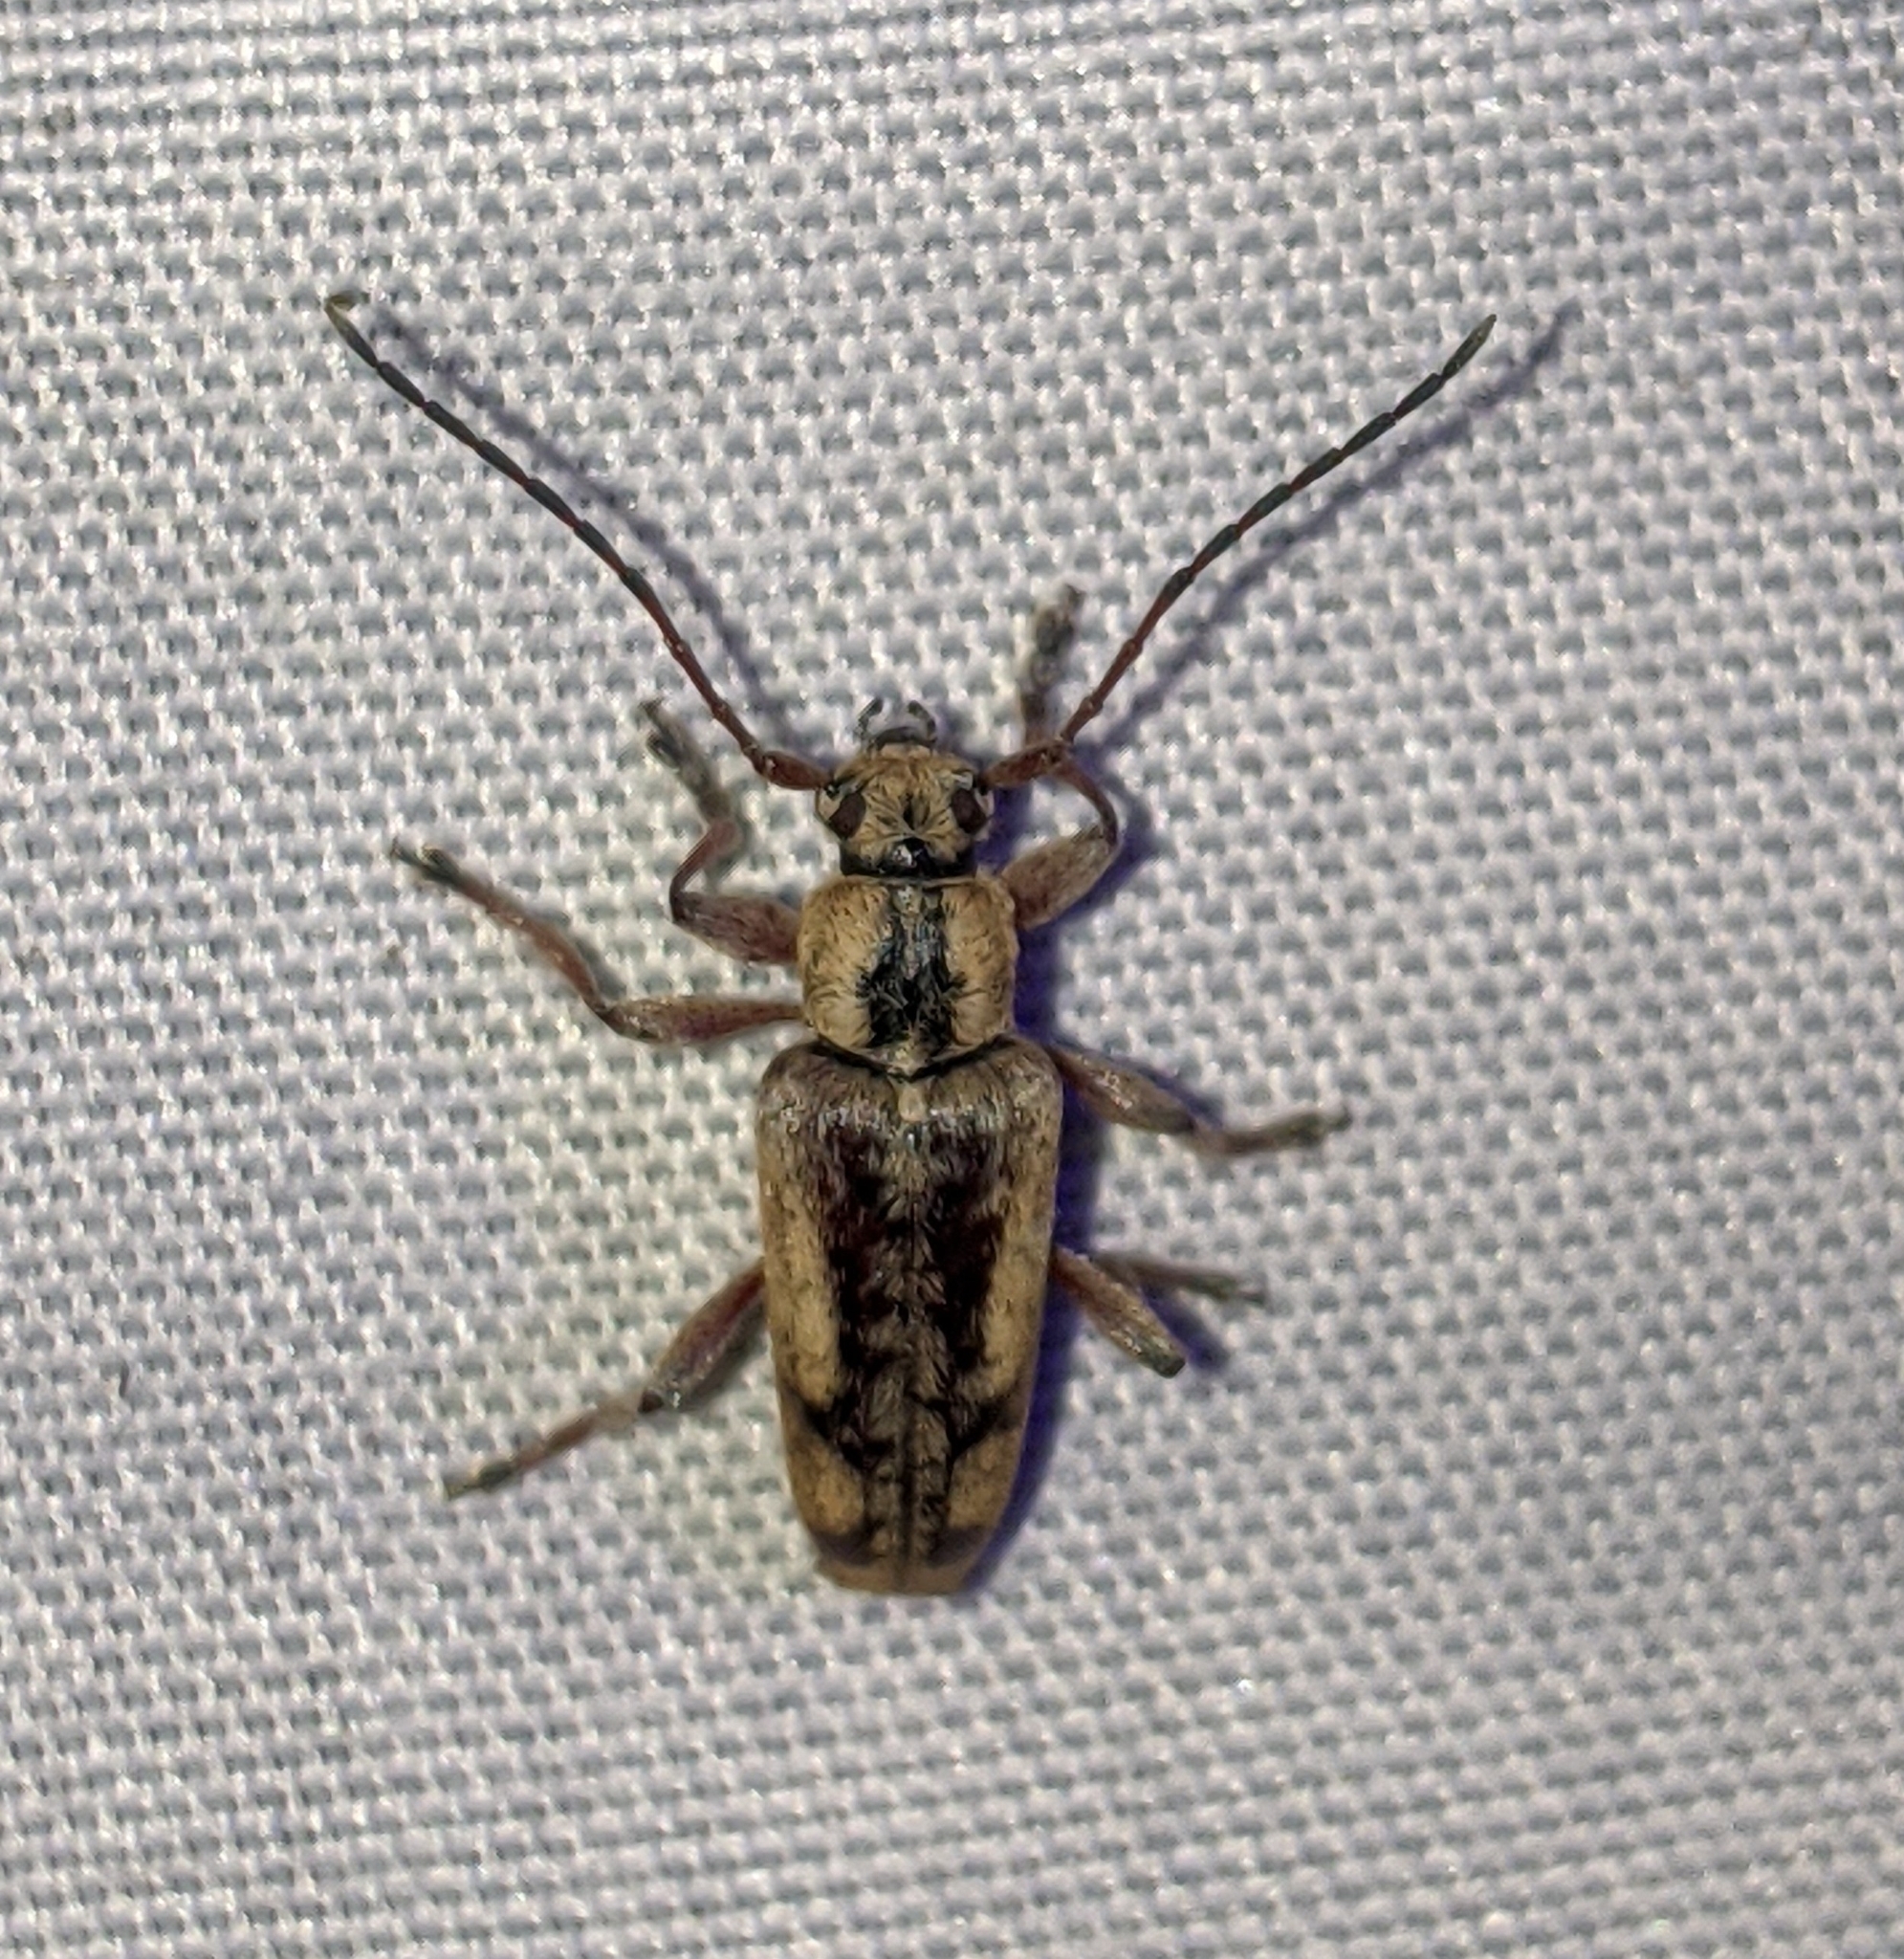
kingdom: Animalia
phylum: Arthropoda
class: Insecta
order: Coleoptera
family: Cerambycidae
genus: Atimia
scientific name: Atimia confusa
